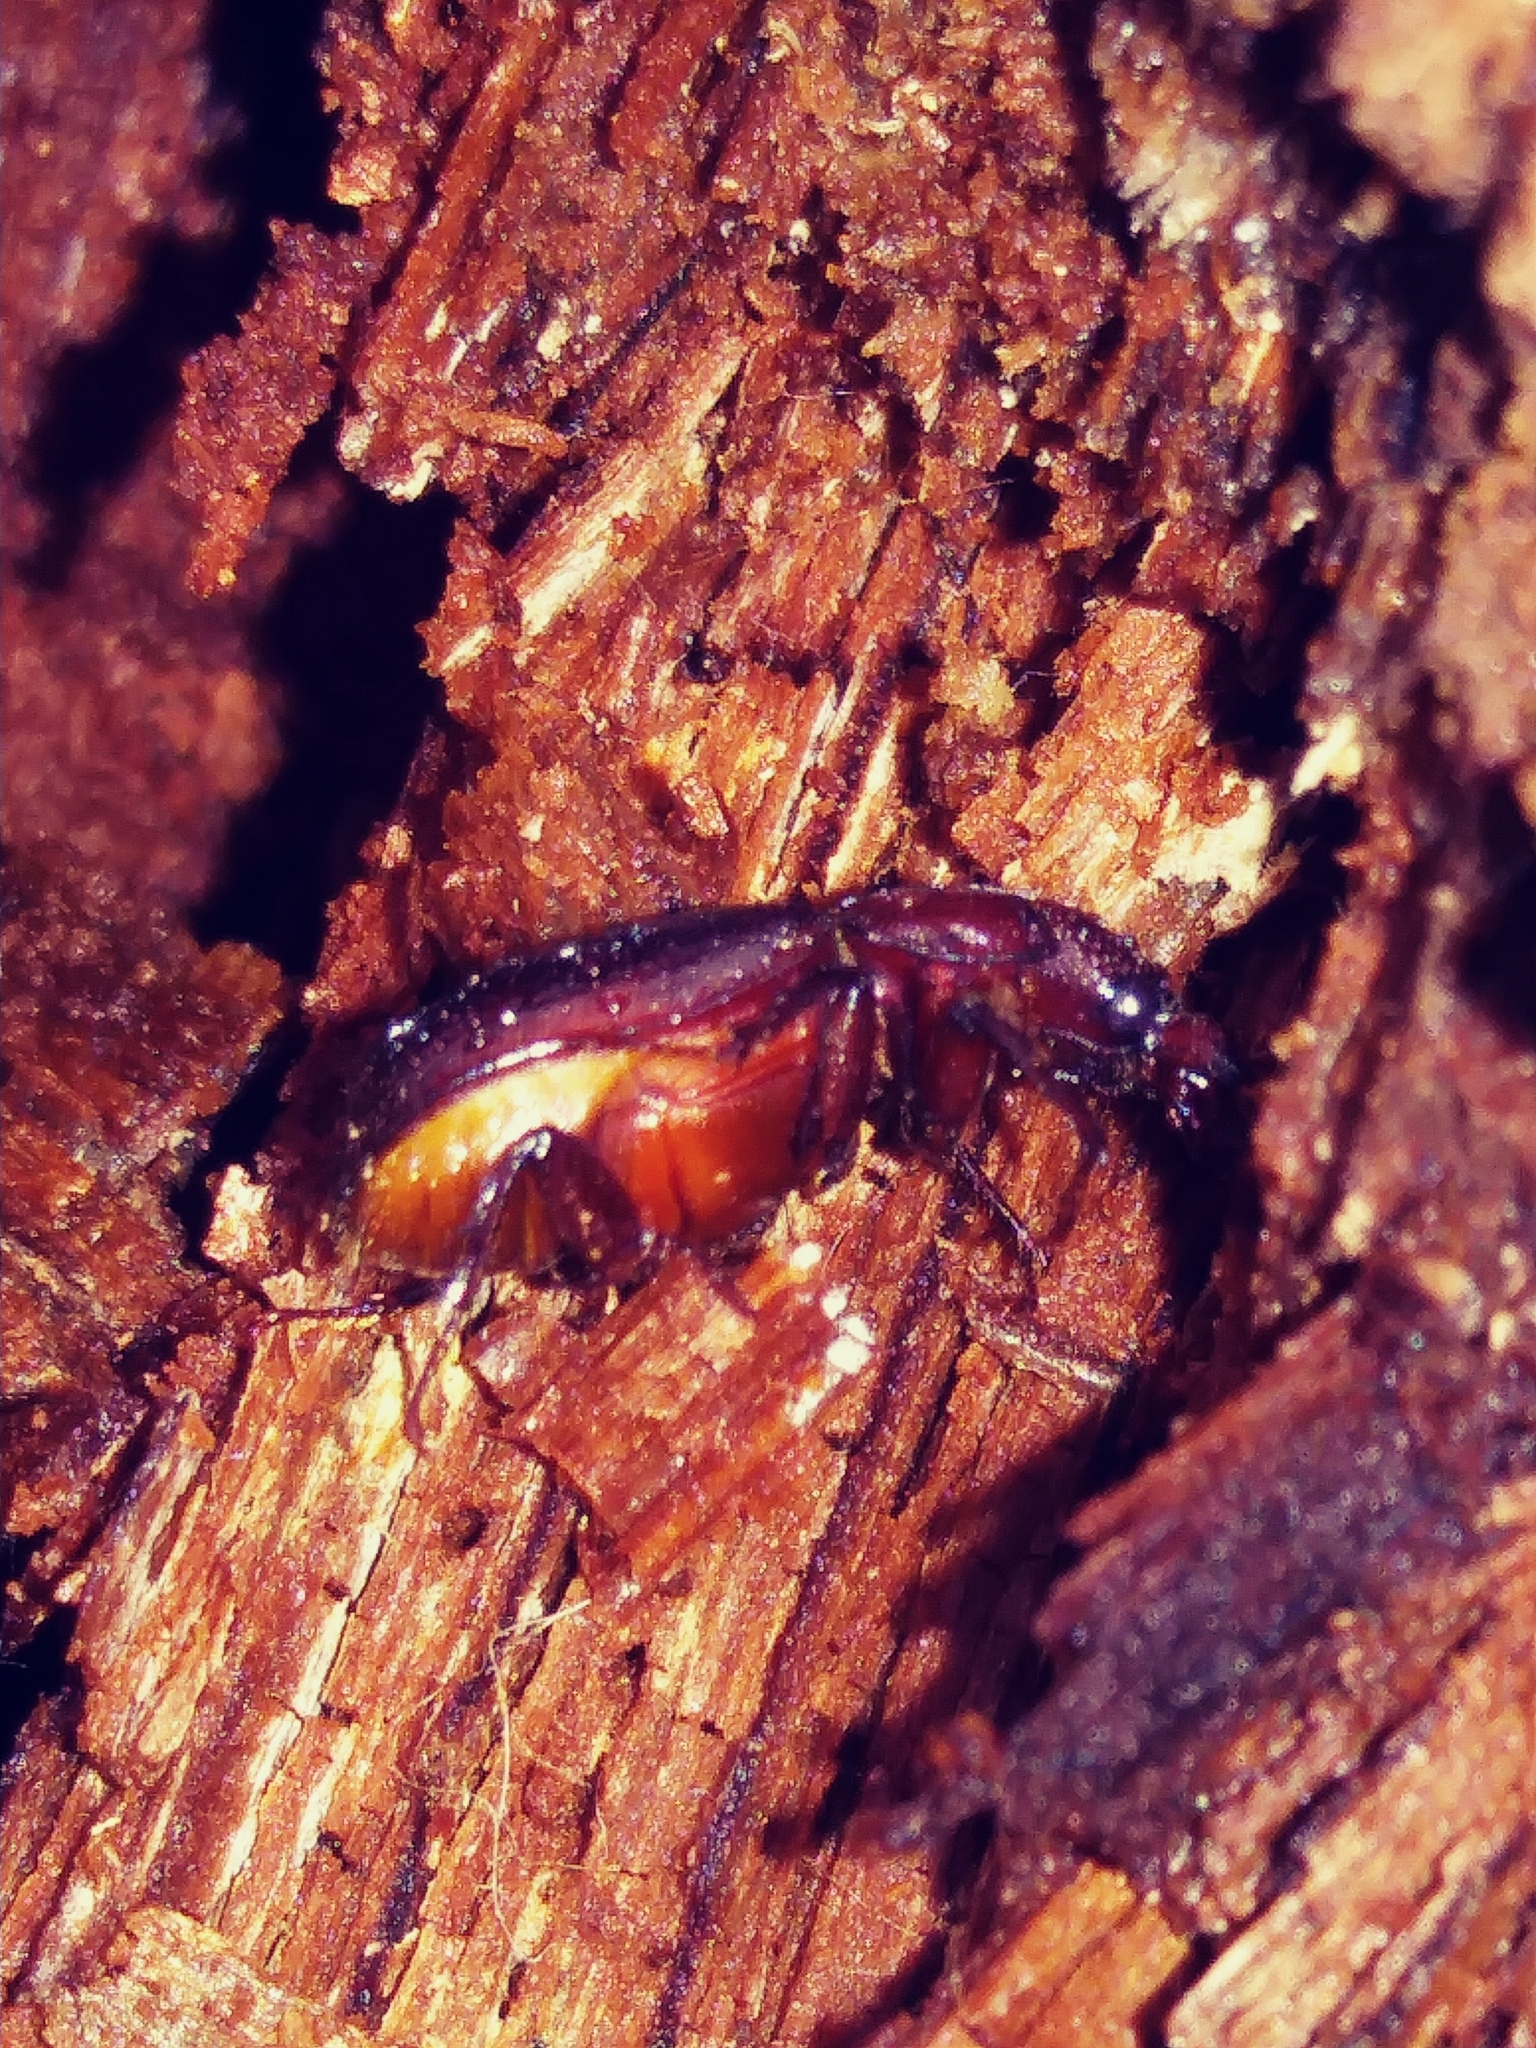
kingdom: Animalia
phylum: Arthropoda
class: Insecta
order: Coleoptera
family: Lucanidae
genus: Ceruchus
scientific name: Ceruchus piceus
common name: Red-rot decay stag beetle
